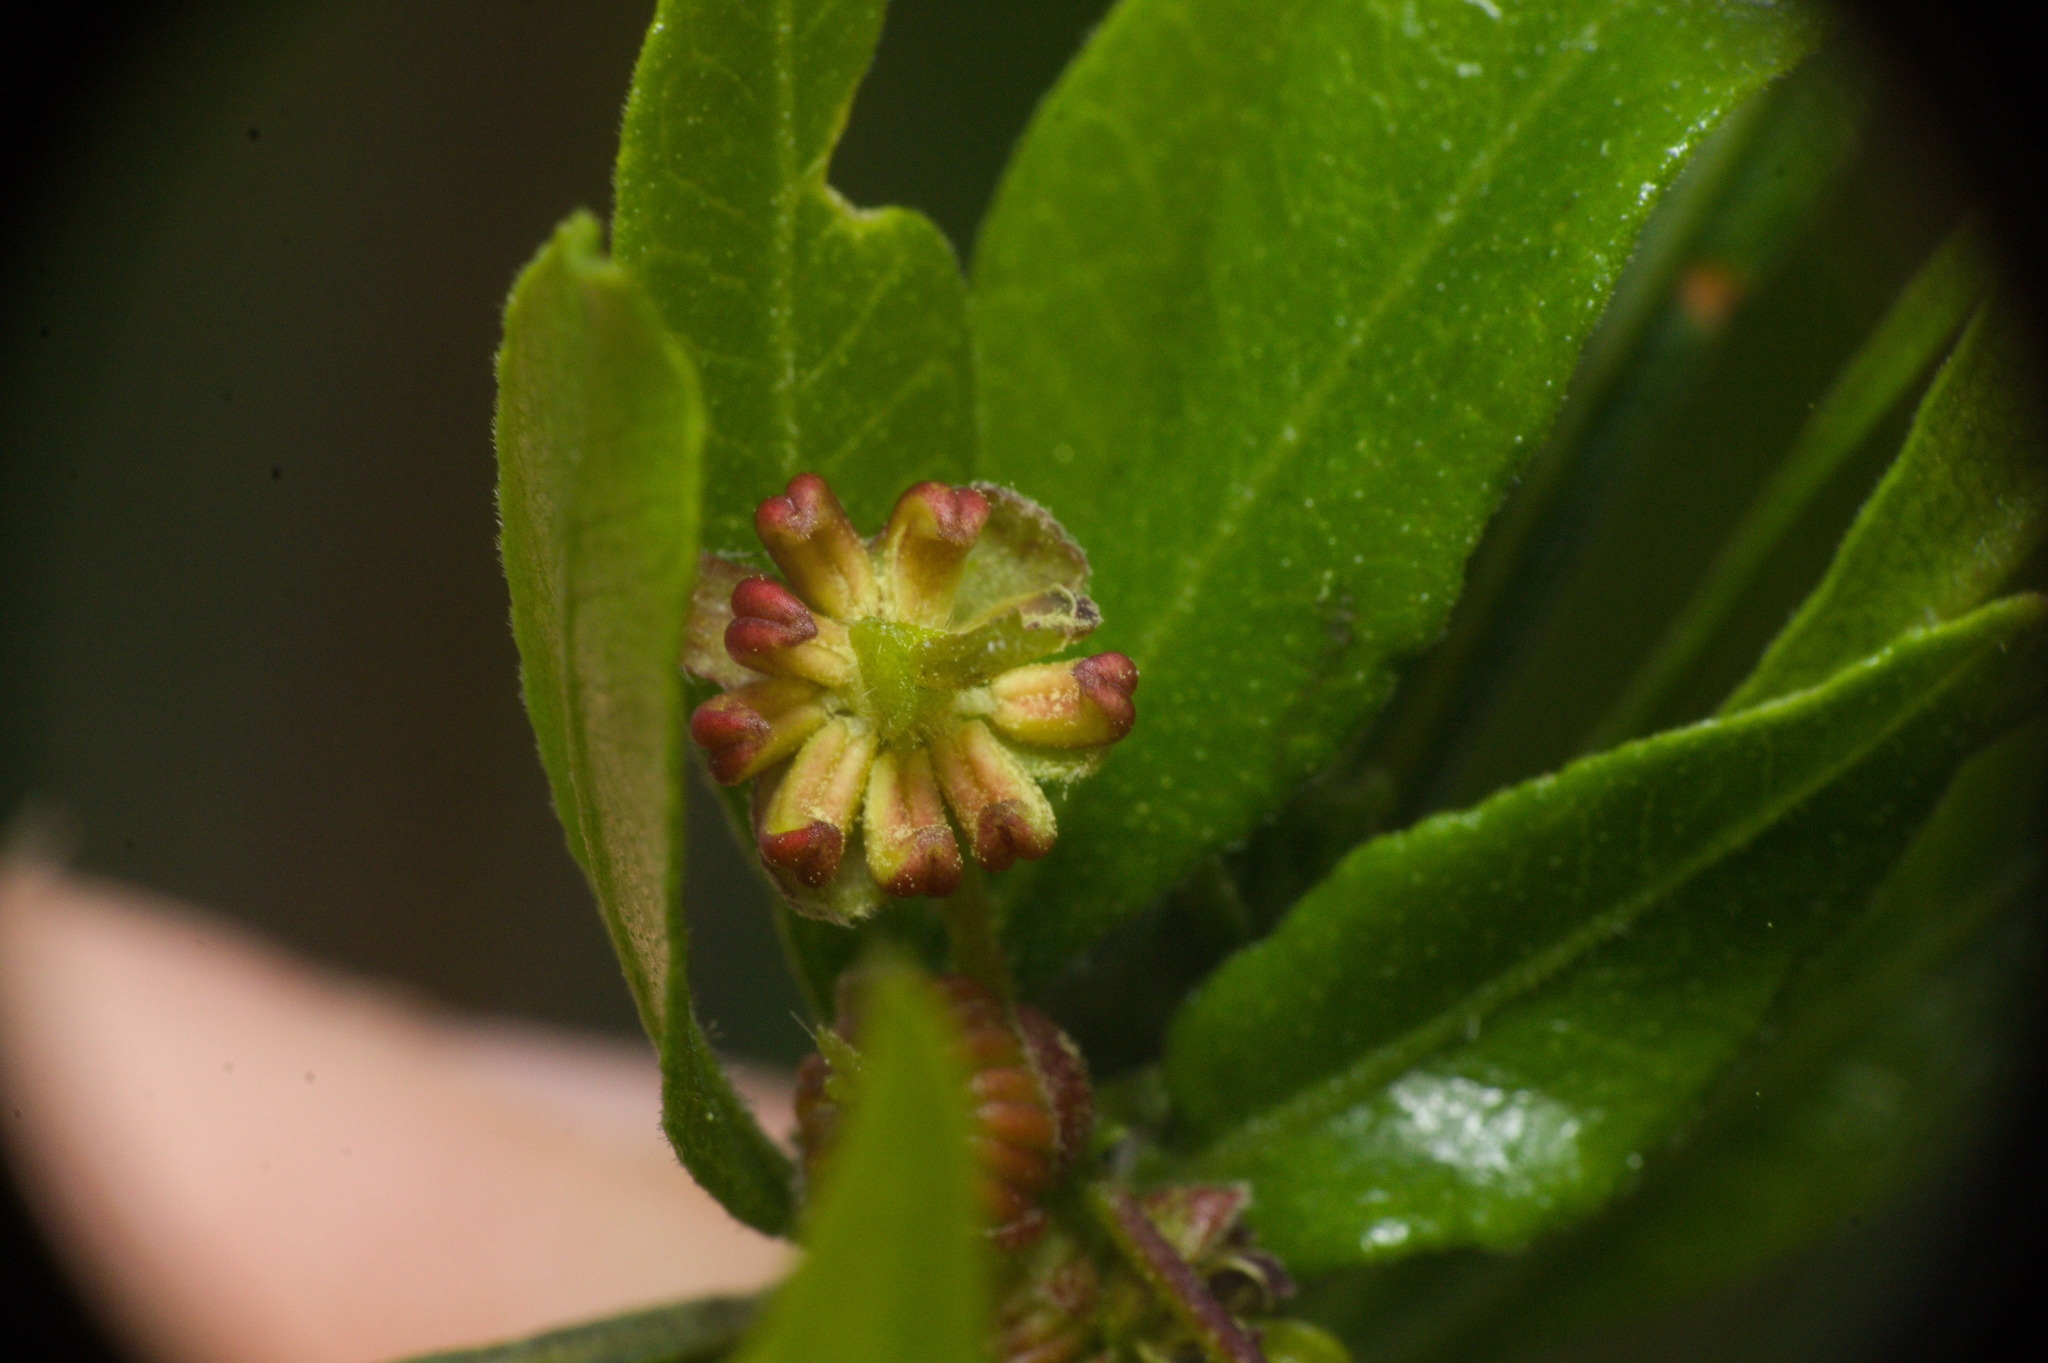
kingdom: Plantae
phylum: Tracheophyta
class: Magnoliopsida
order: Sapindales
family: Sapindaceae
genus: Dodonaea
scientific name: Dodonaea viscosa
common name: Hopbush
